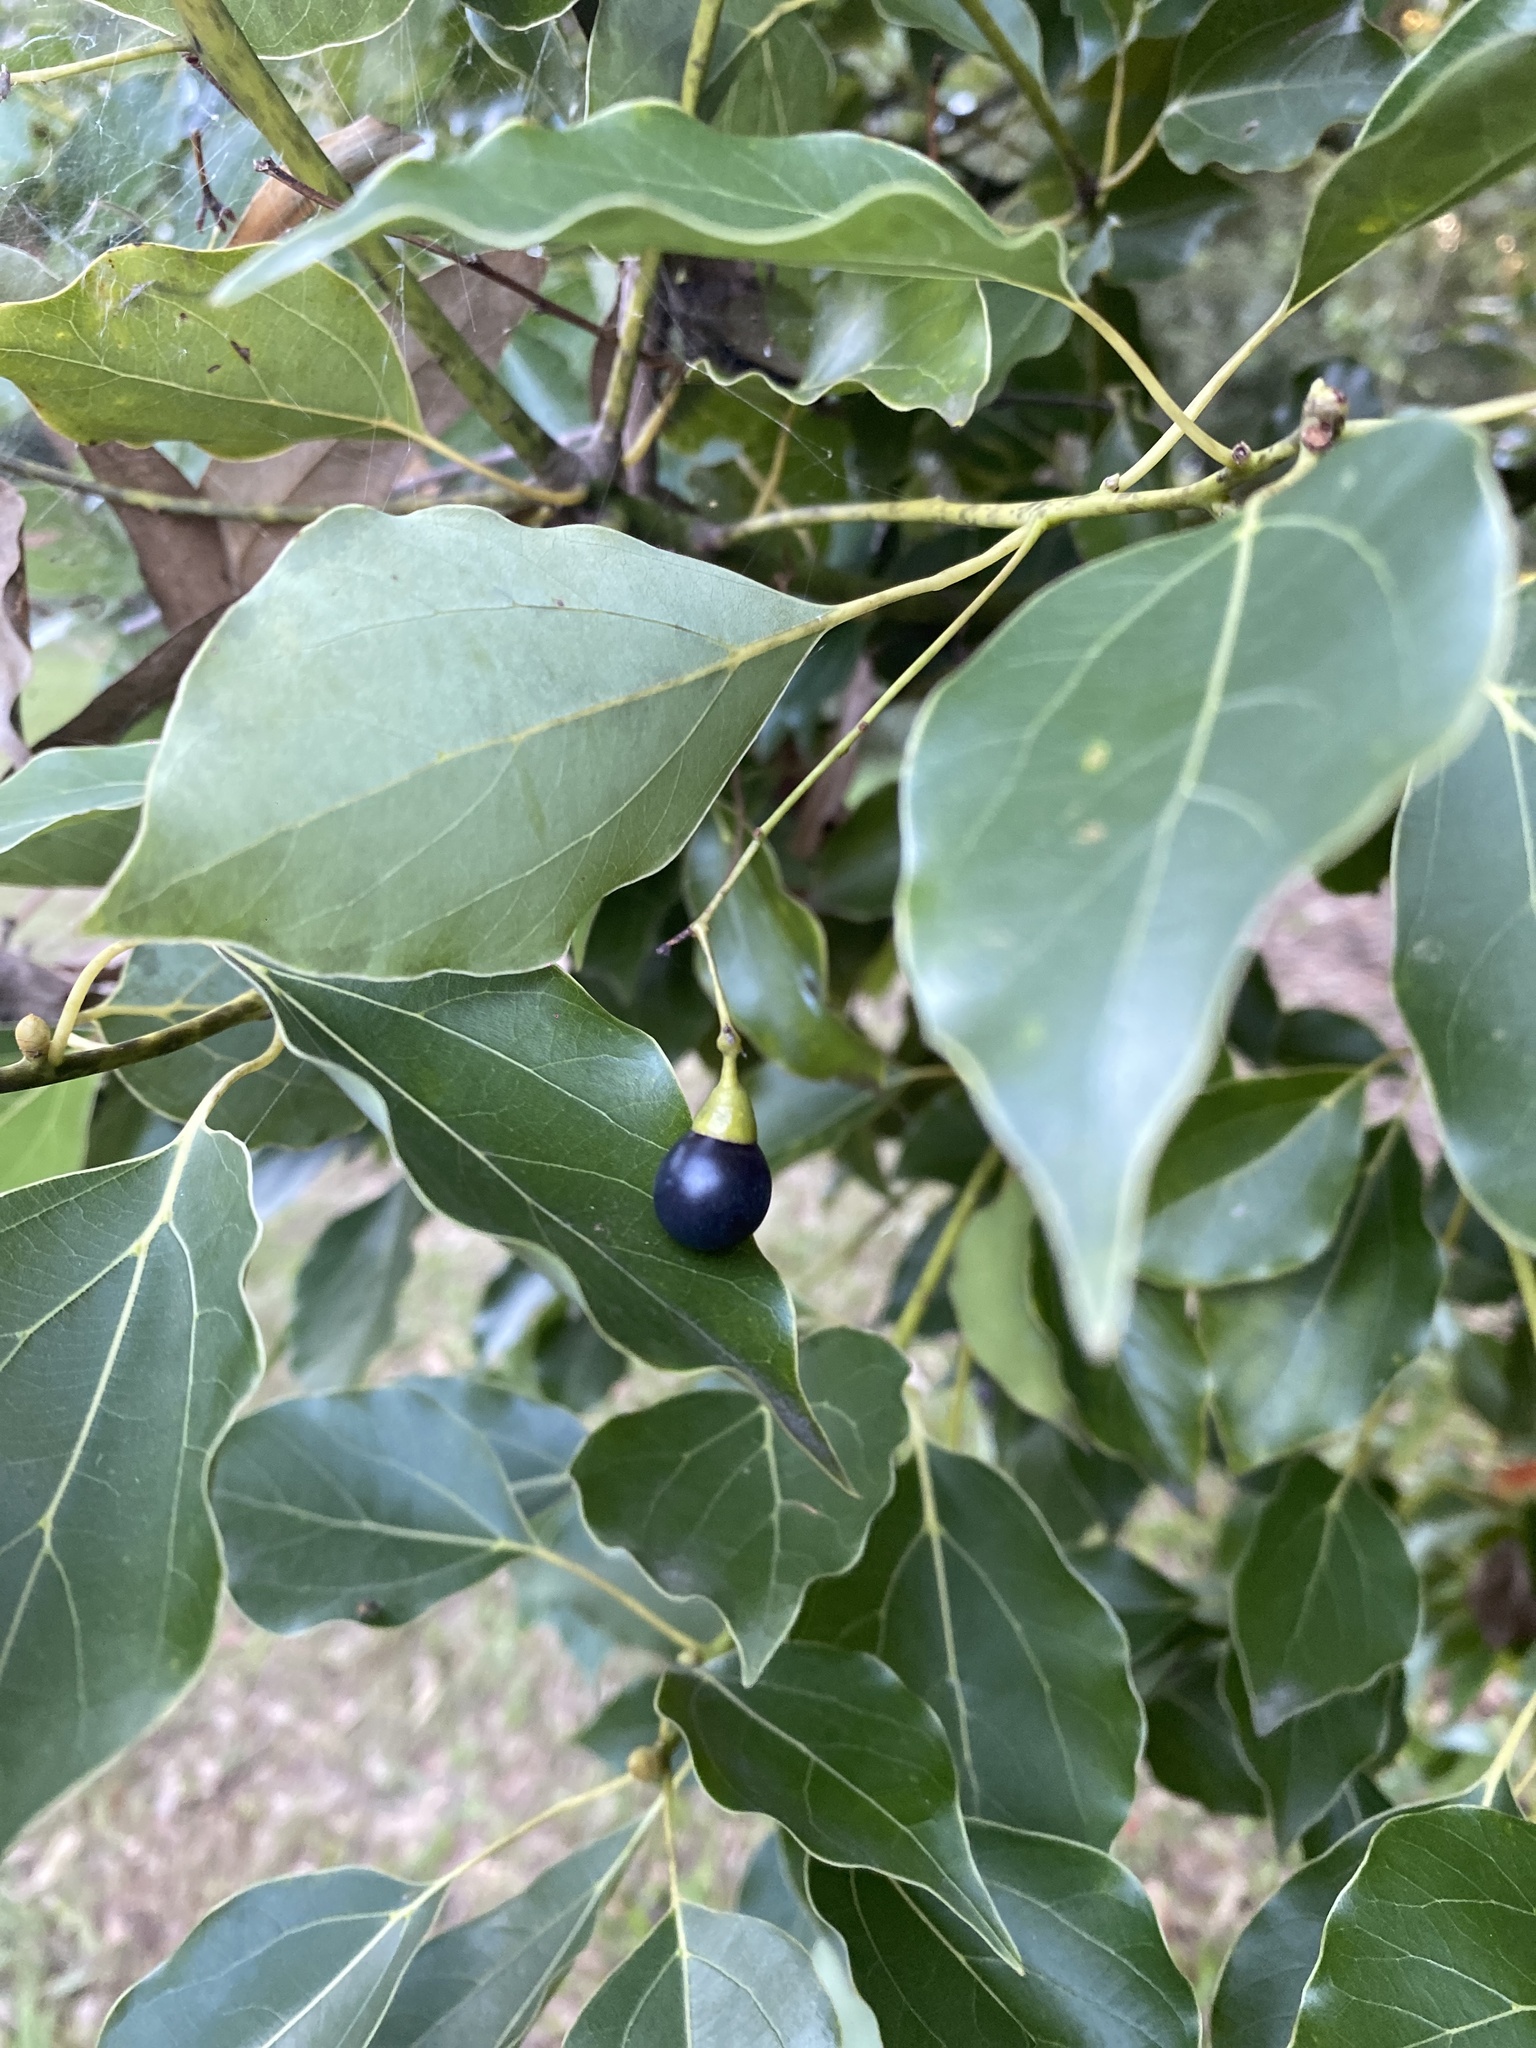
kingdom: Plantae
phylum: Tracheophyta
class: Magnoliopsida
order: Laurales
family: Lauraceae
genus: Cinnamomum
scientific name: Cinnamomum camphora
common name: Camphortree
